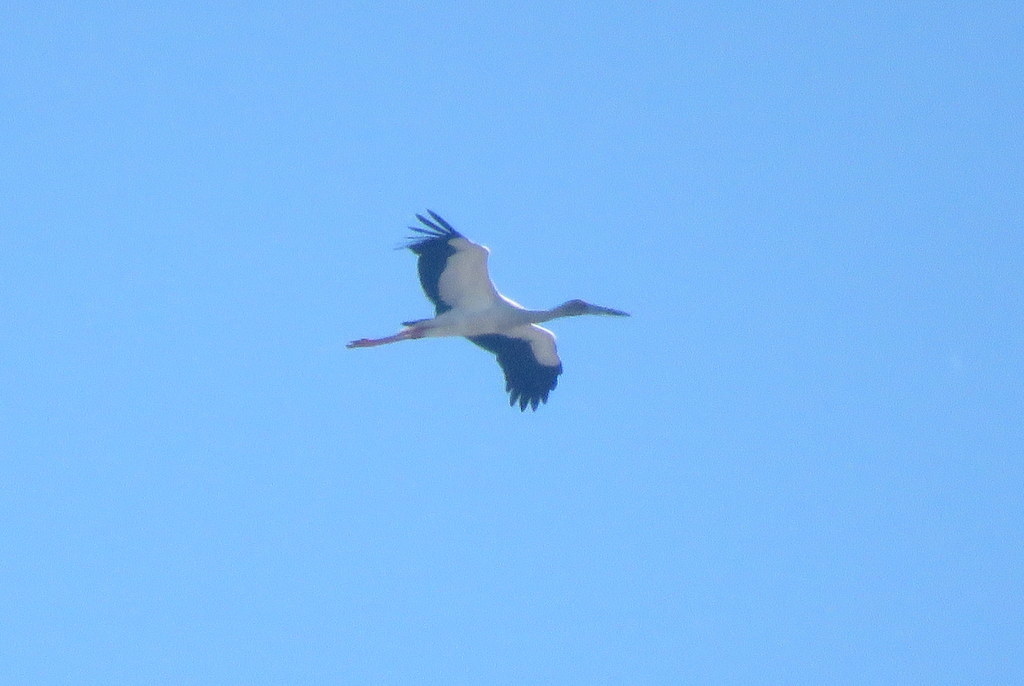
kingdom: Animalia
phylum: Chordata
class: Aves
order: Ciconiiformes
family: Ciconiidae
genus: Ciconia
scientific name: Ciconia maguari
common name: Maguari stork
